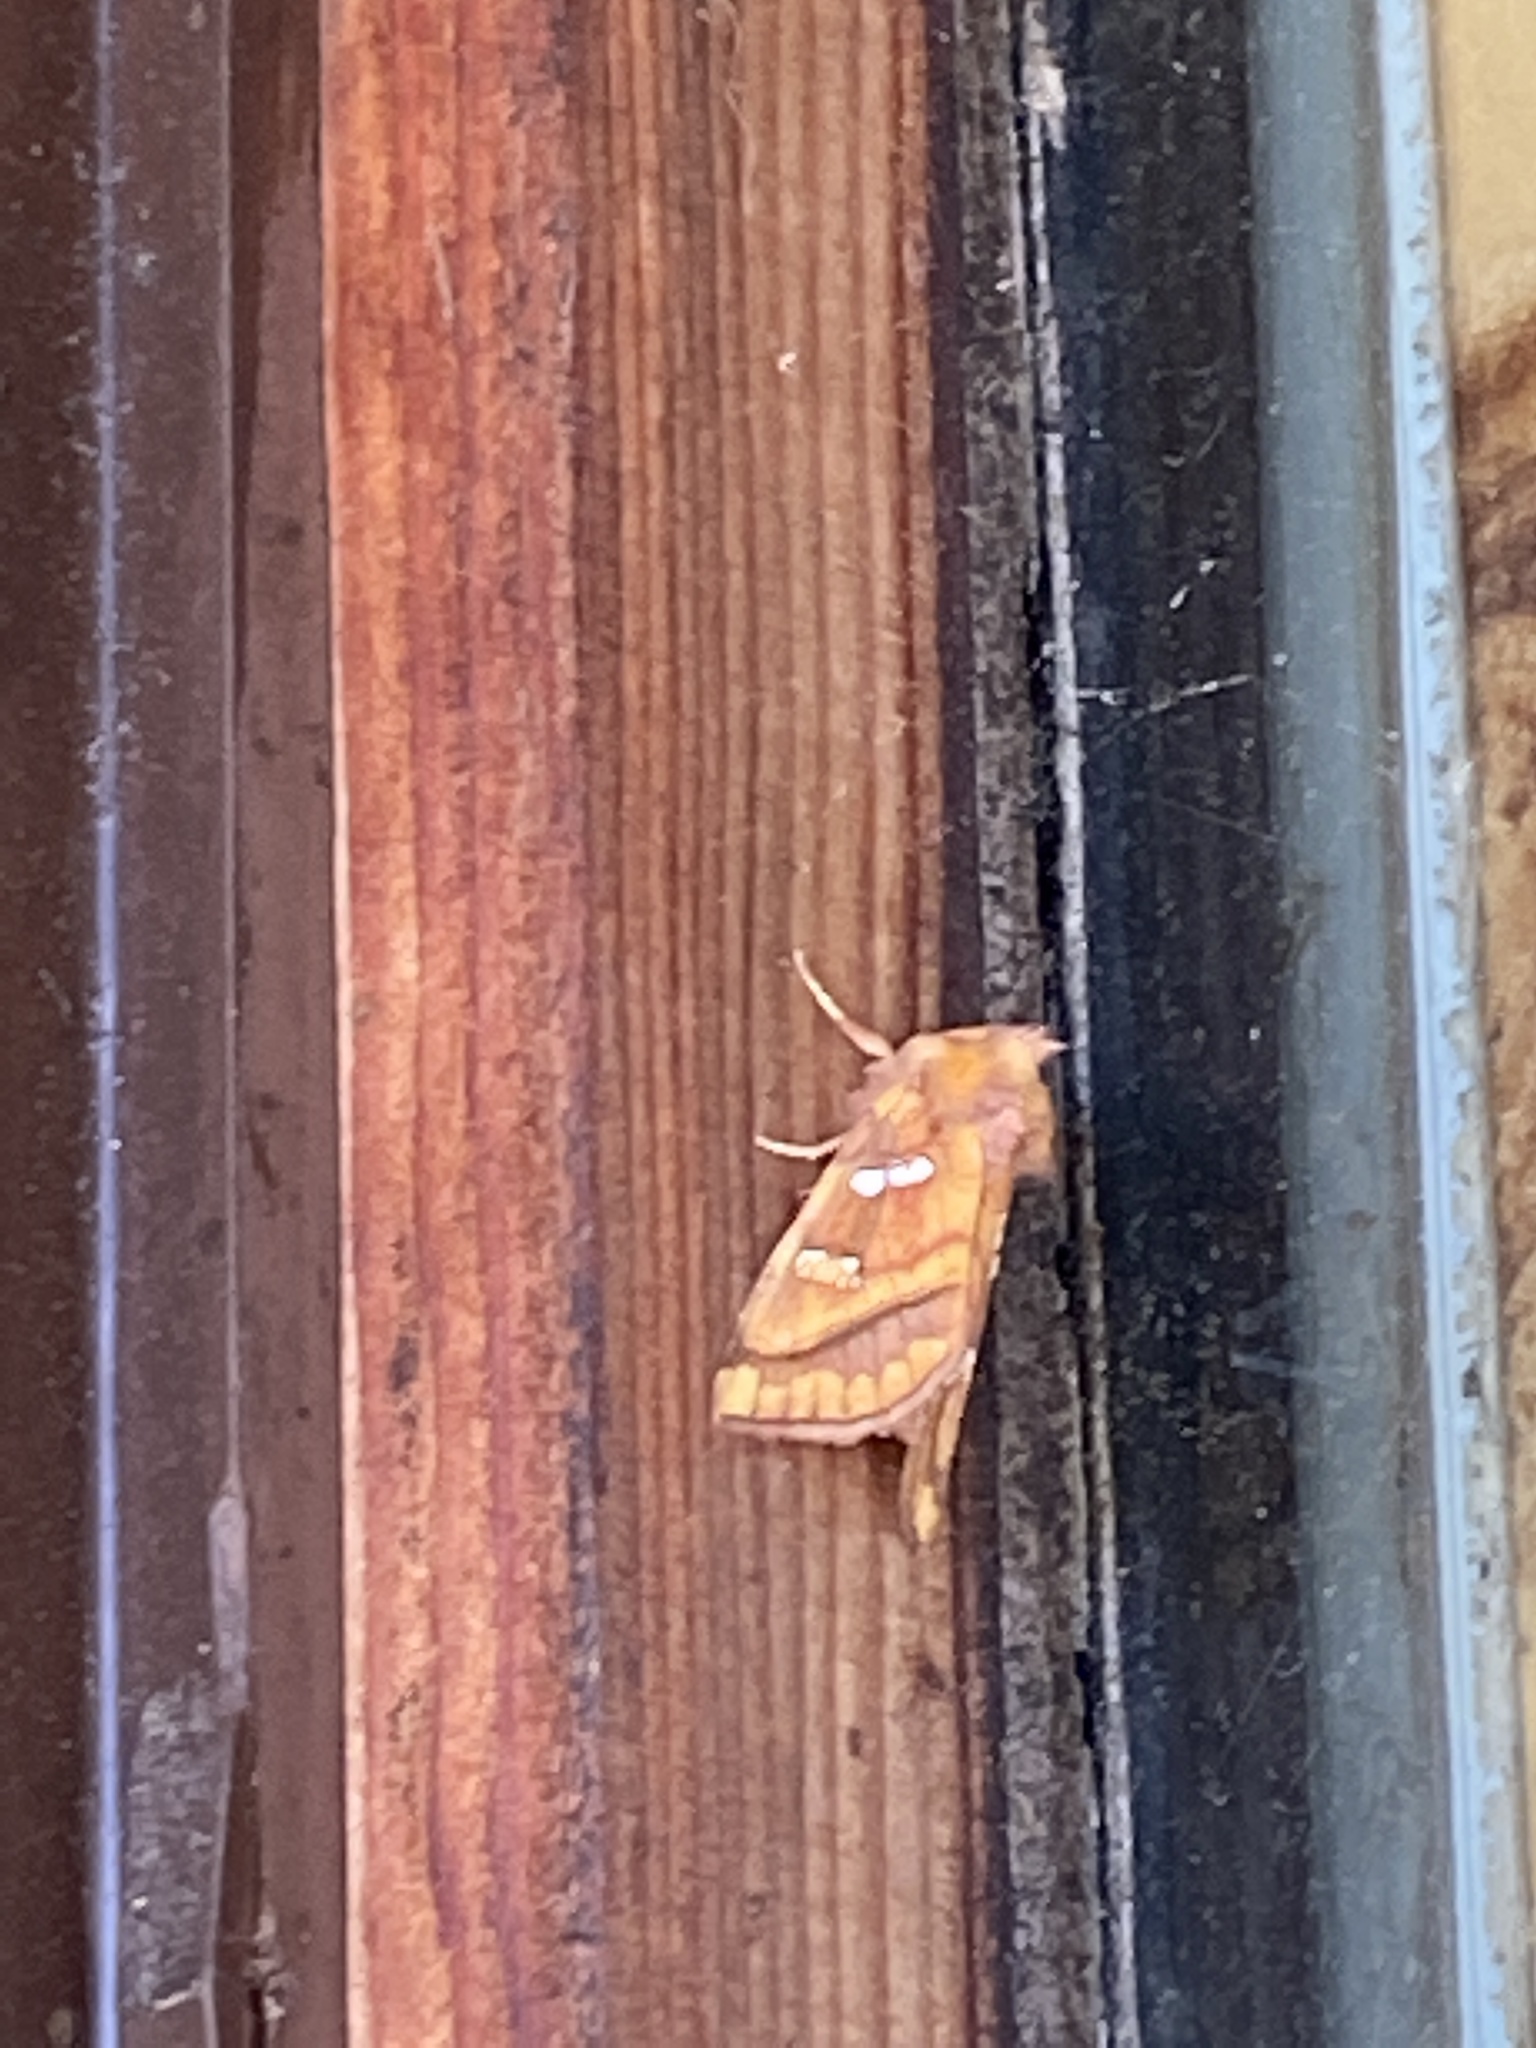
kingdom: Animalia
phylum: Arthropoda
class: Insecta
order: Lepidoptera
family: Noctuidae
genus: Papaipema
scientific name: Papaipema pterisii
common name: Bracken borer moth
